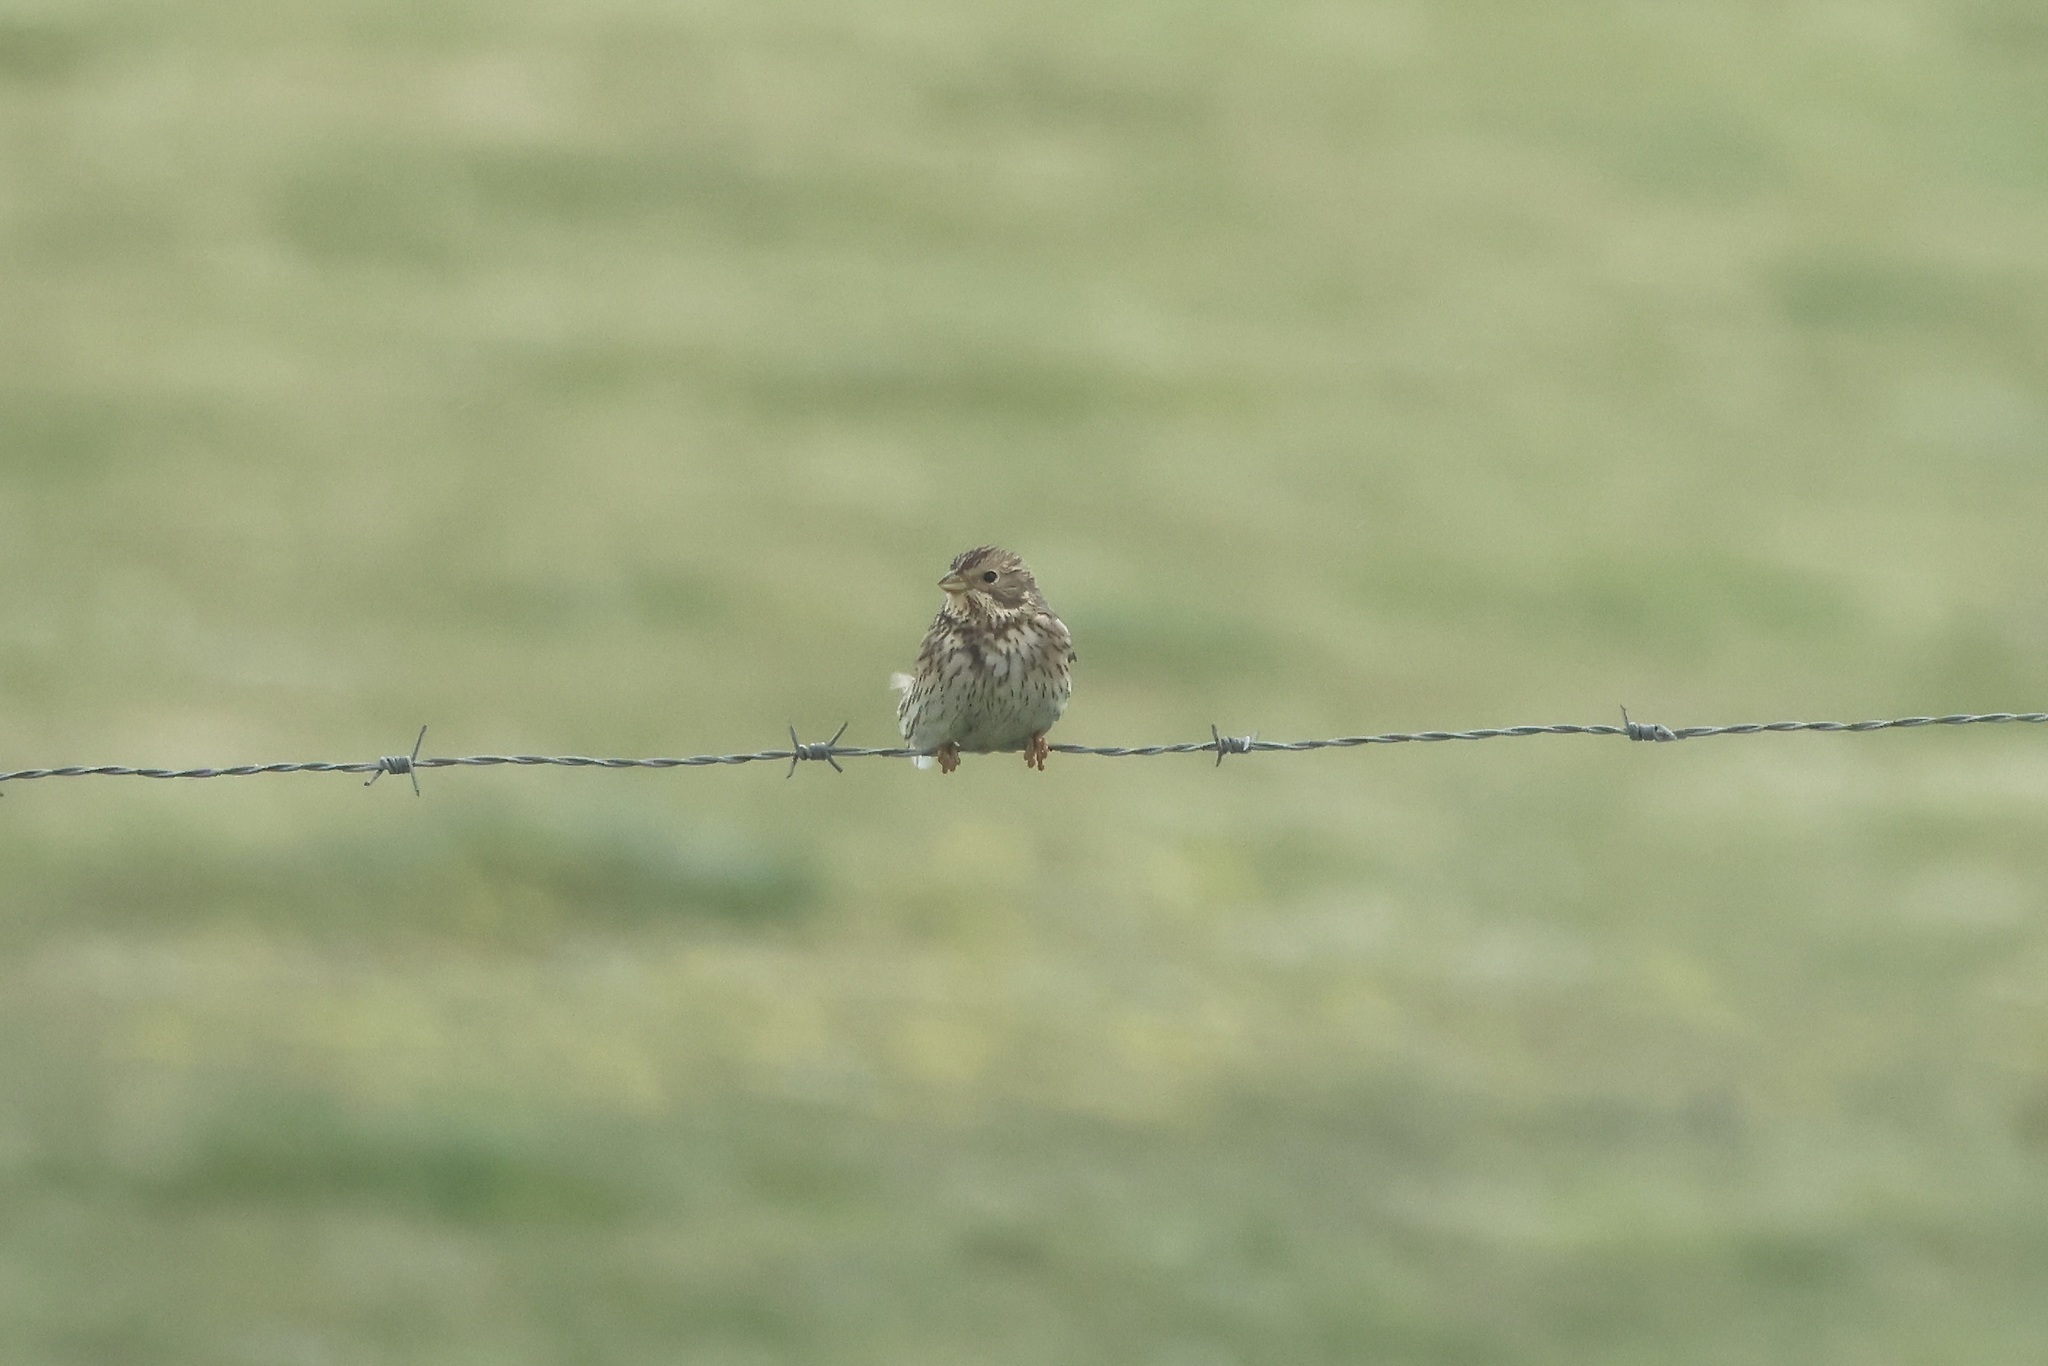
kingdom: Animalia
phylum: Chordata
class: Aves
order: Passeriformes
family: Emberizidae
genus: Emberiza
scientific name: Emberiza calandra
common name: Corn bunting
